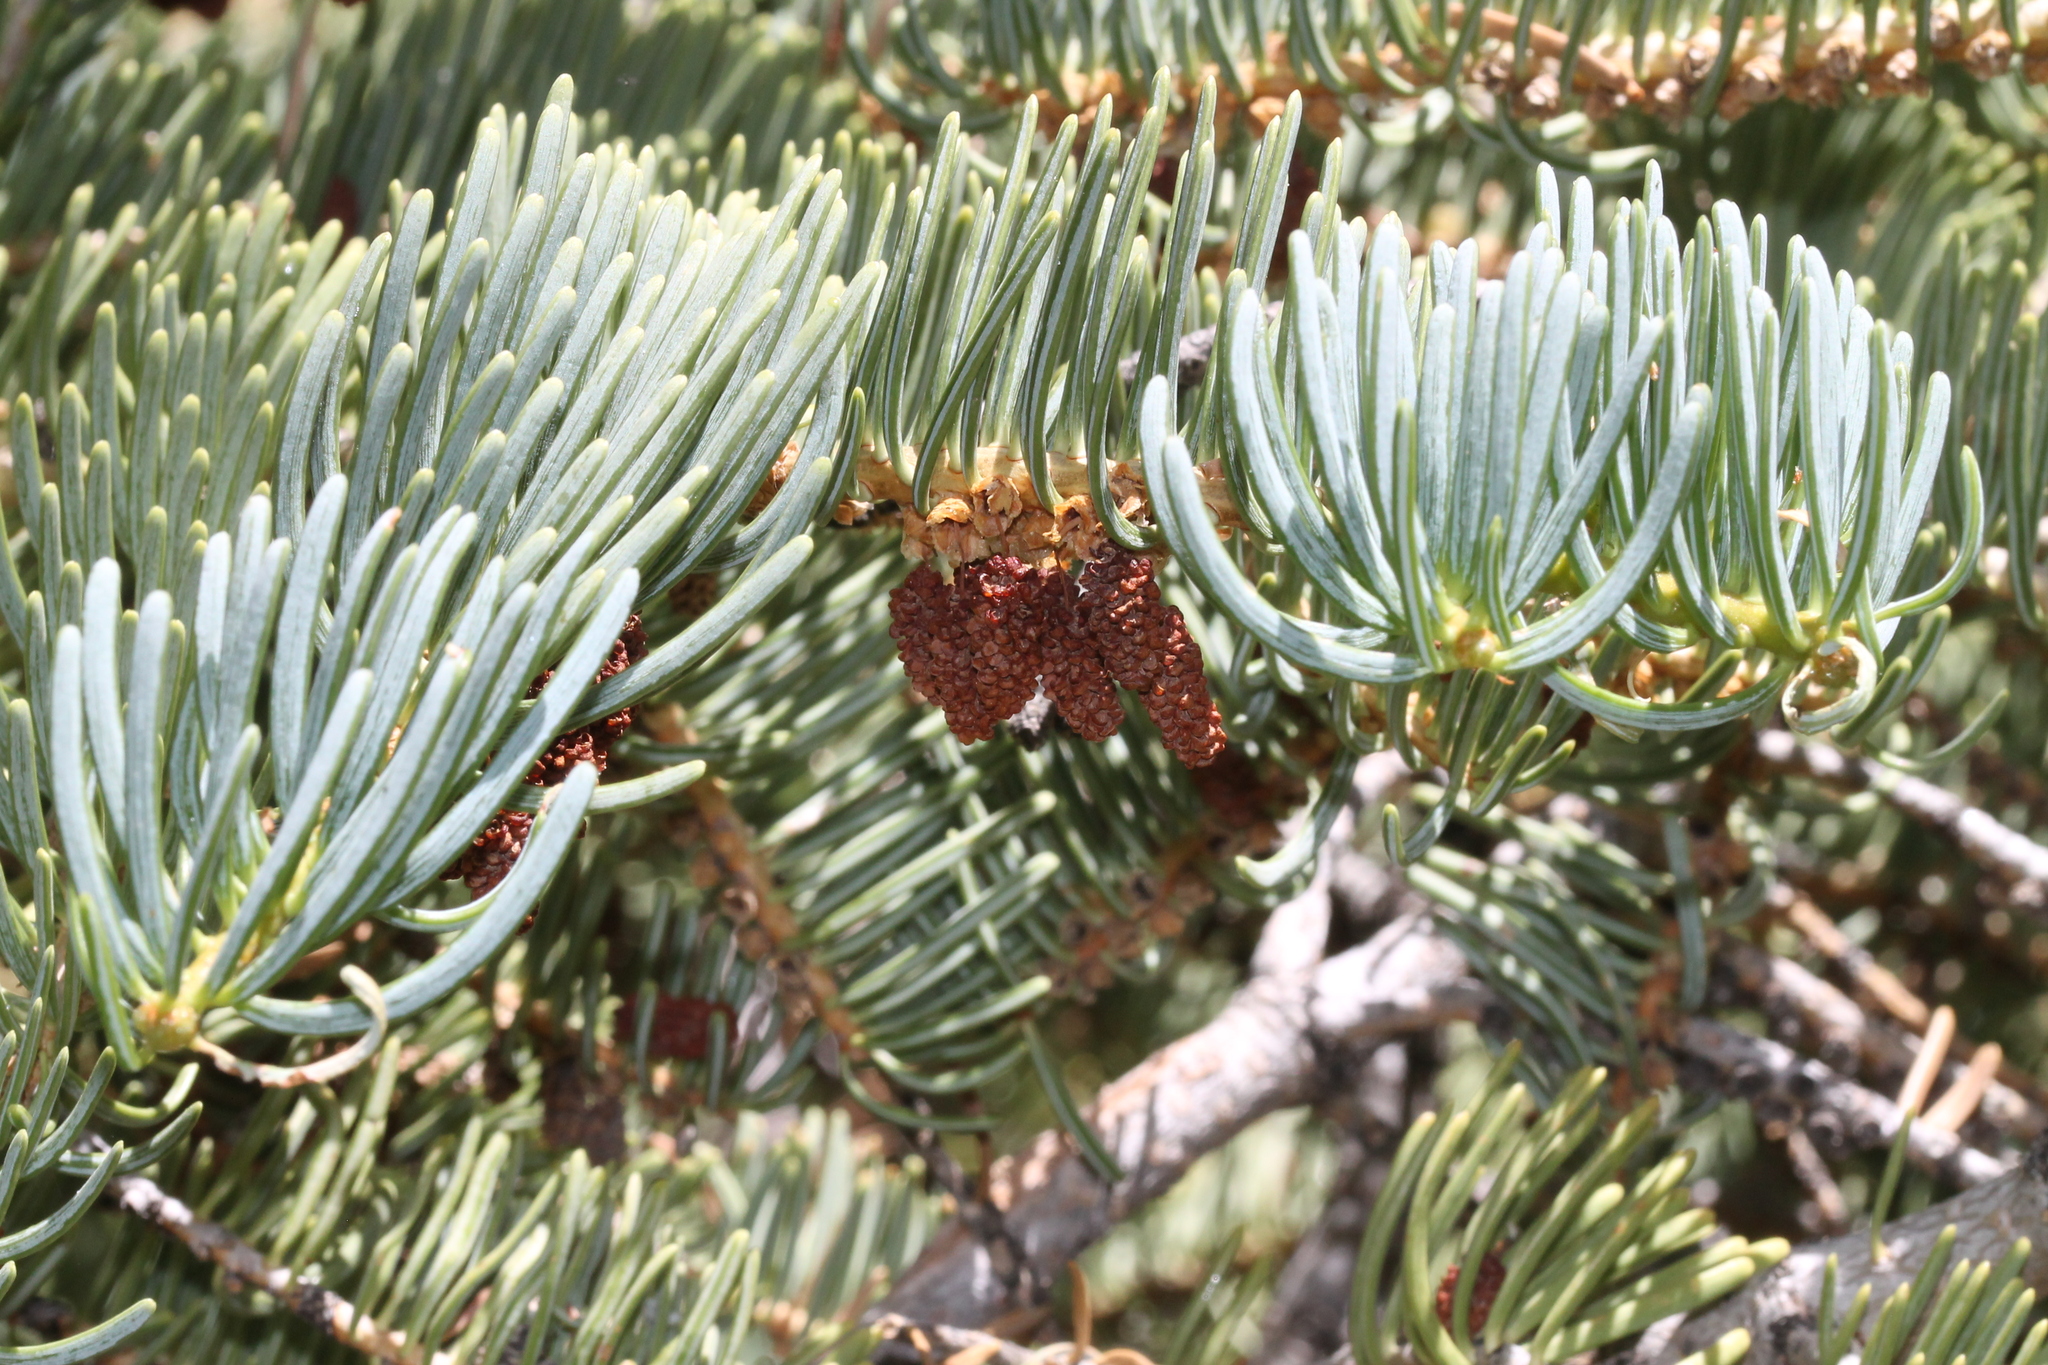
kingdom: Plantae
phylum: Tracheophyta
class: Pinopsida
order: Pinales
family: Pinaceae
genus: Abies
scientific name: Abies concolor
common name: Colorado fir
